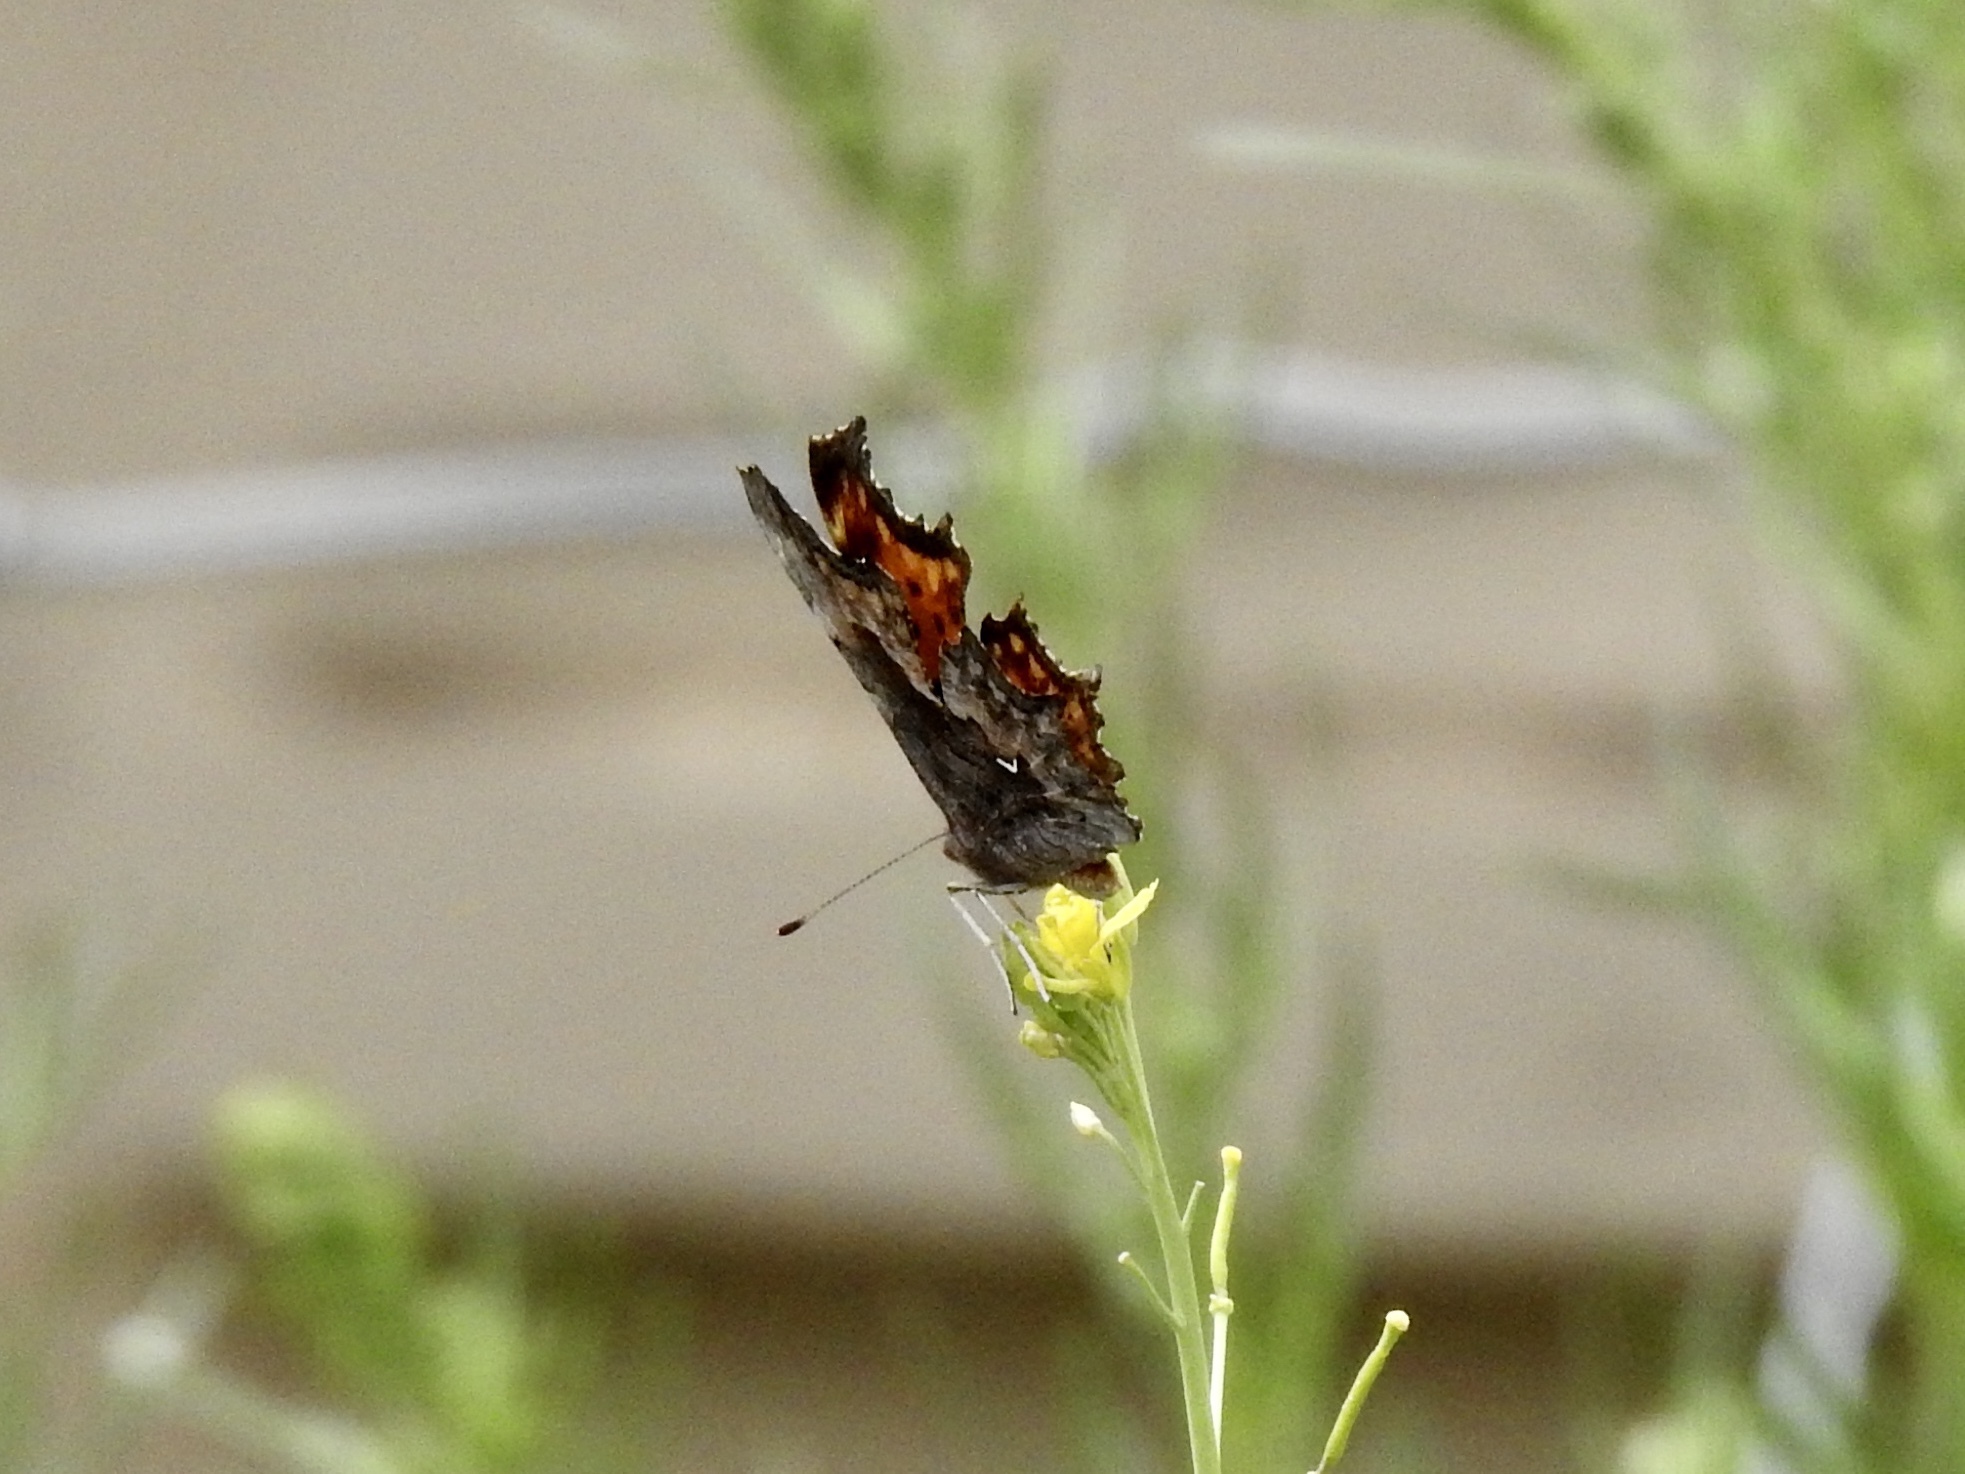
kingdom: Animalia
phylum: Arthropoda
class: Insecta
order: Lepidoptera
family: Nymphalidae
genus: Polygonia
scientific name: Polygonia gracilis
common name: Hoary comma
